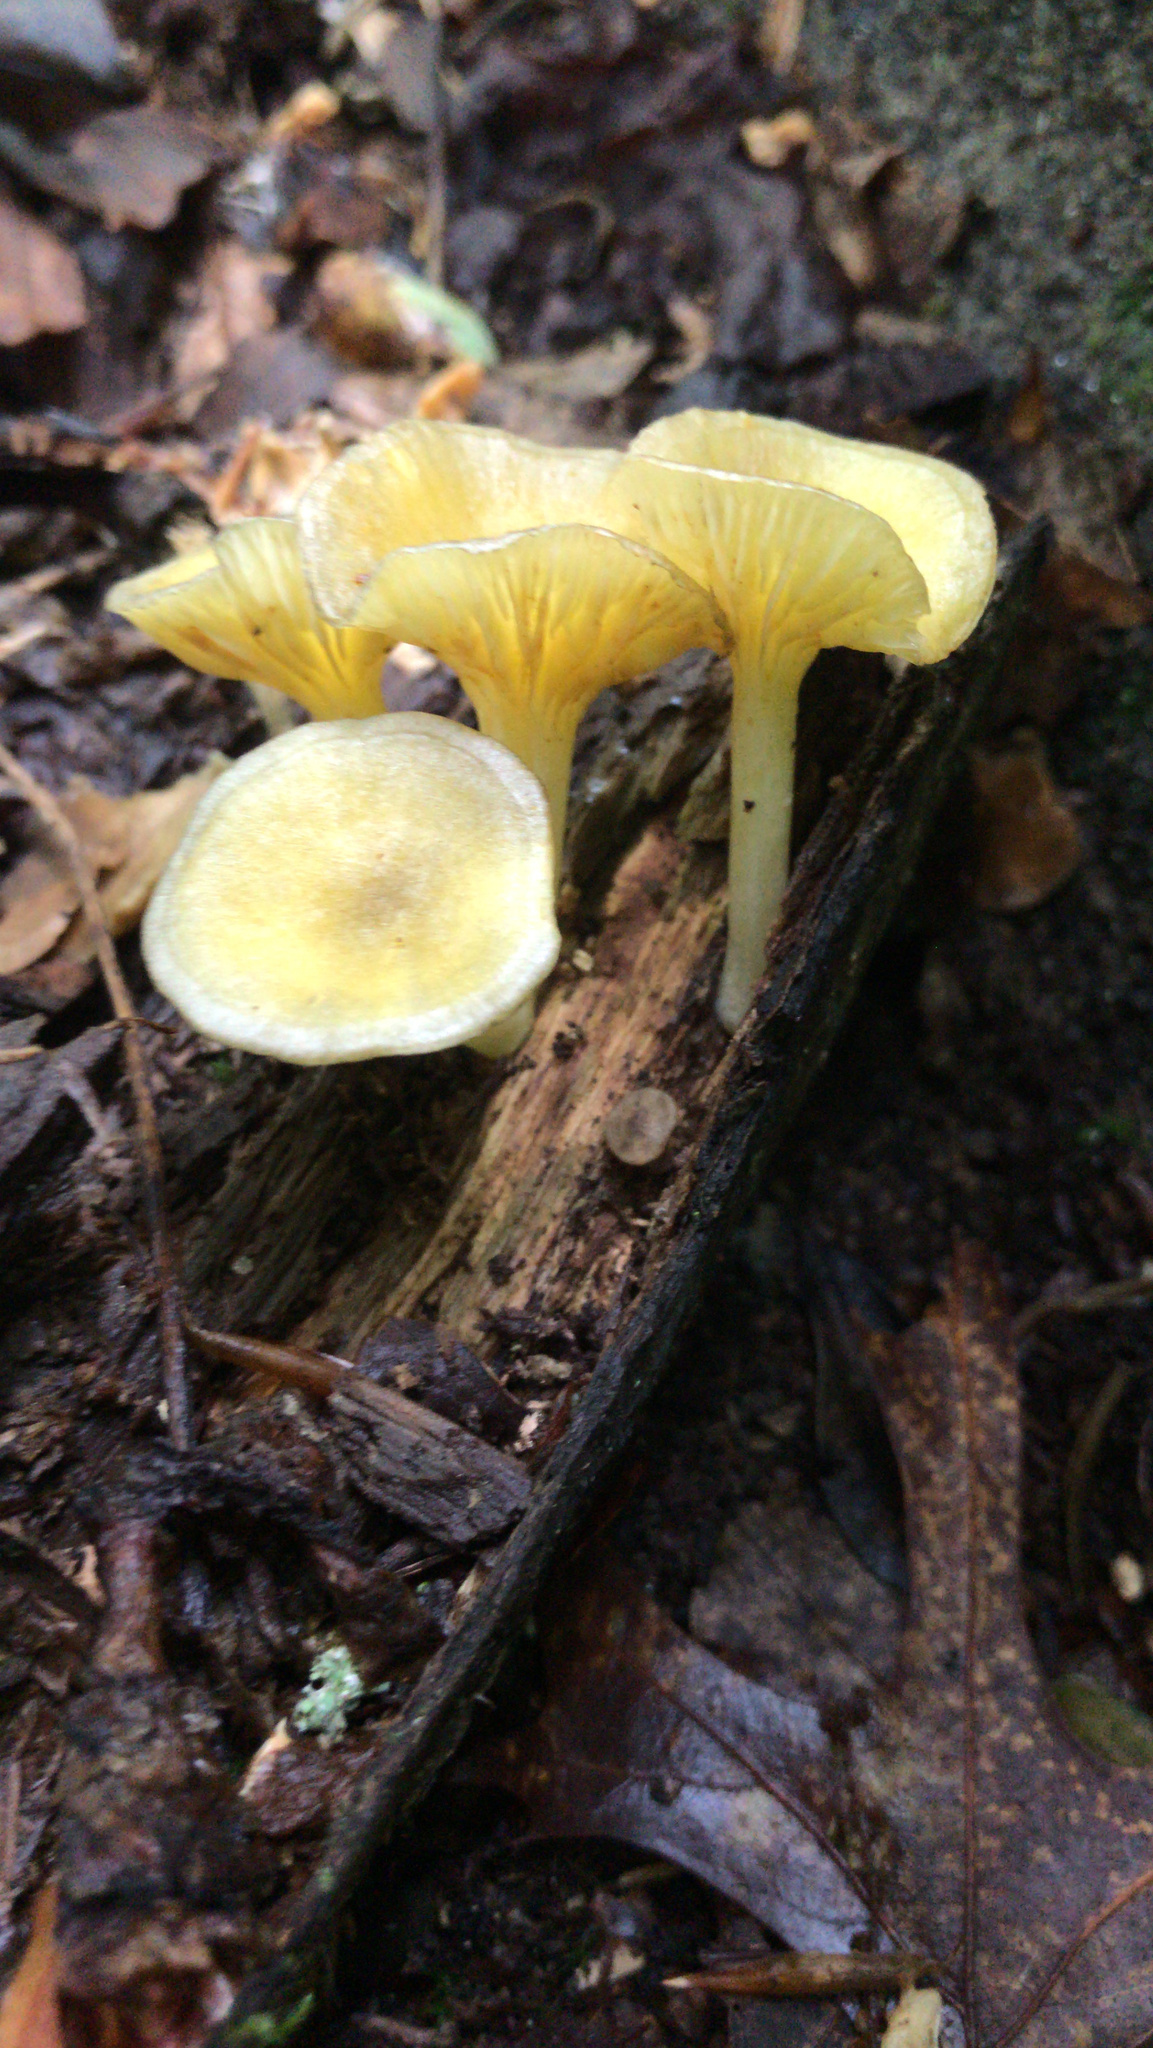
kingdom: Fungi
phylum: Basidiomycota
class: Agaricomycetes
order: Agaricales
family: Marasmiaceae
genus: Gerronema
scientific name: Gerronema strombodes
